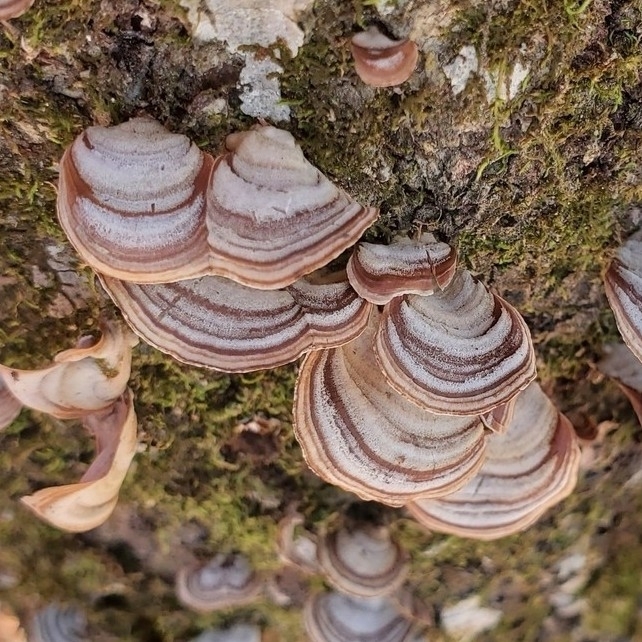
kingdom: Fungi
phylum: Basidiomycota
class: Agaricomycetes
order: Russulales
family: Stereaceae
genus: Stereum
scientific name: Stereum lobatum
